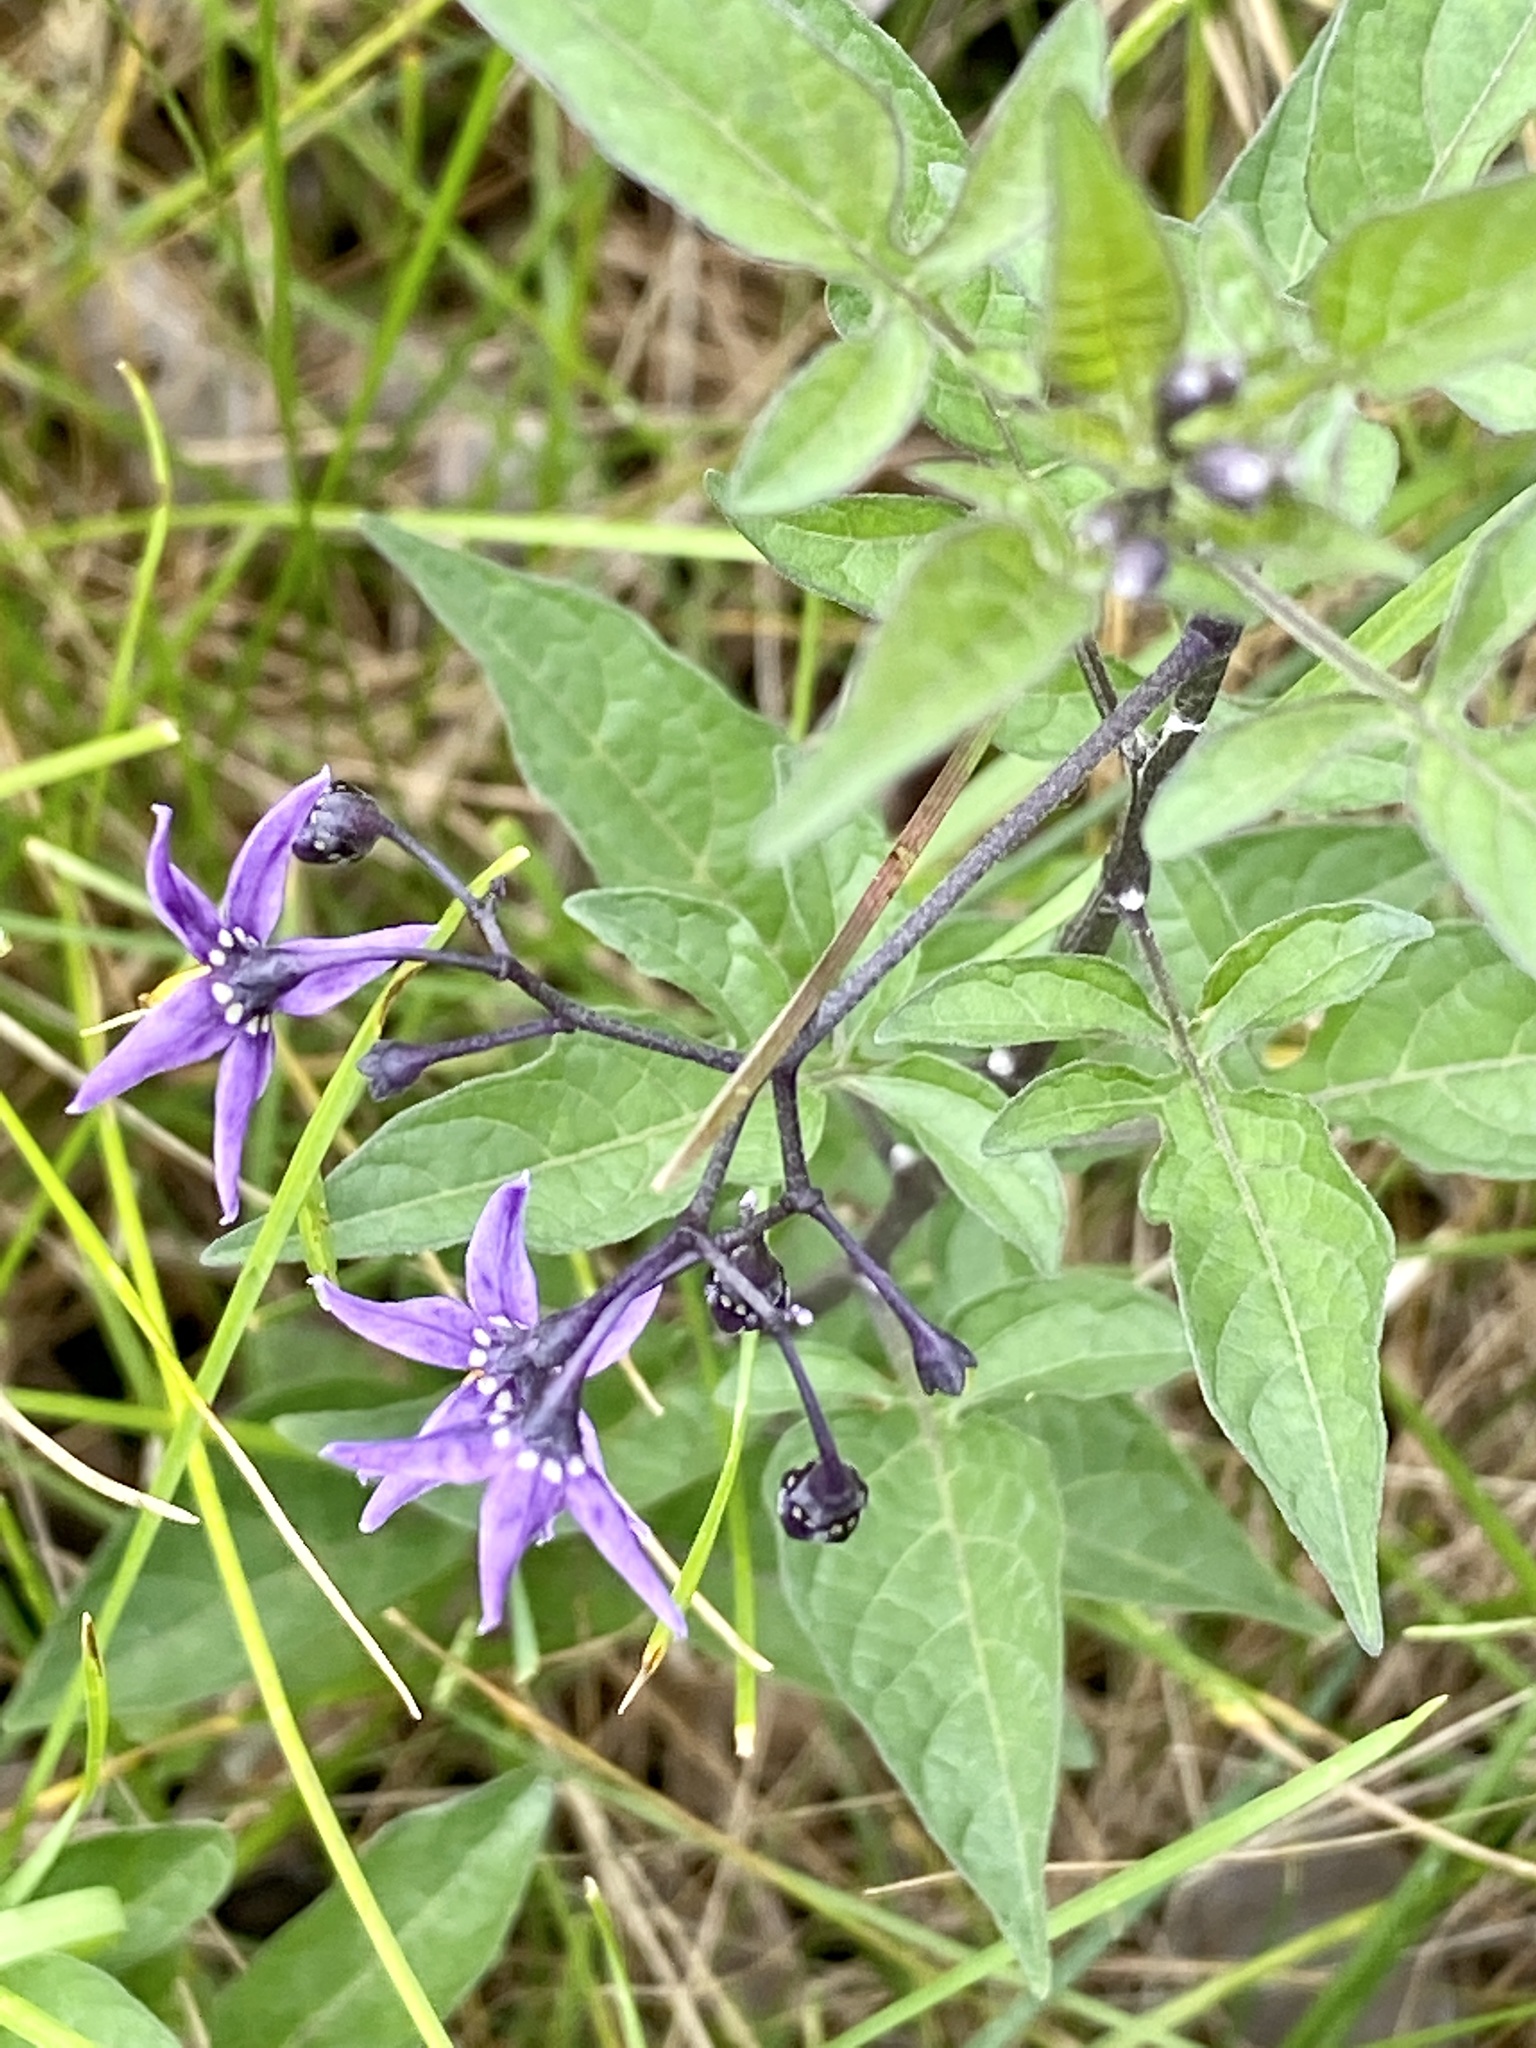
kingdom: Plantae
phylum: Tracheophyta
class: Magnoliopsida
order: Solanales
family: Solanaceae
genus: Solanum
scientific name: Solanum dulcamara
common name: Climbing nightshade
